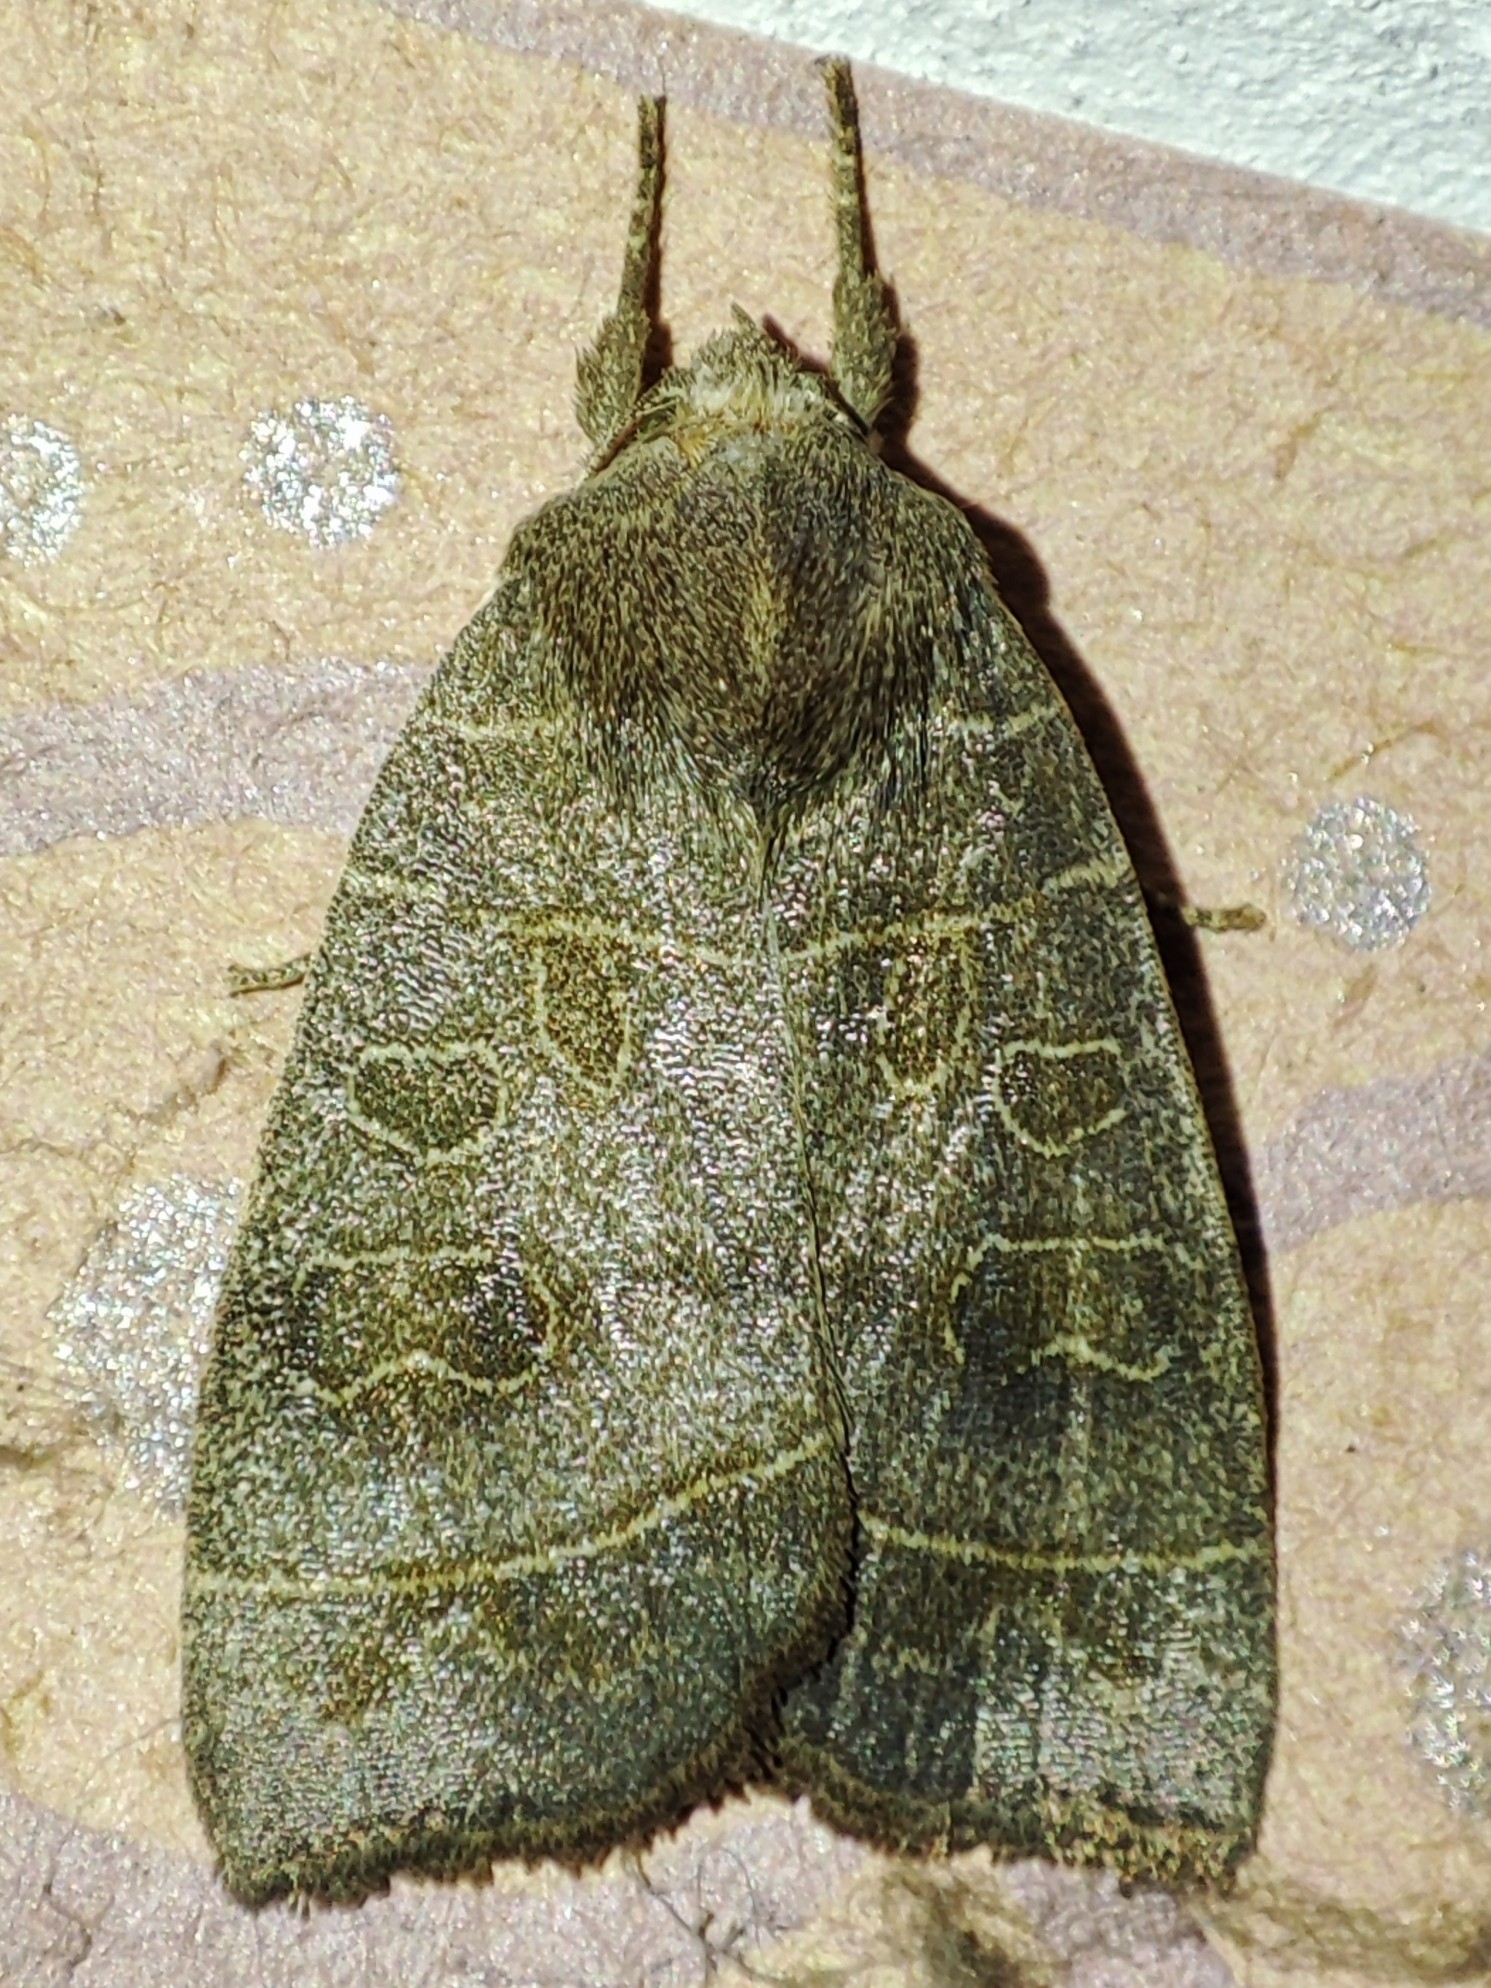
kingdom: Animalia
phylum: Arthropoda
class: Insecta
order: Lepidoptera
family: Noctuidae
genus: Ipimorpha
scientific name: Ipimorpha subtusa
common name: Olive
